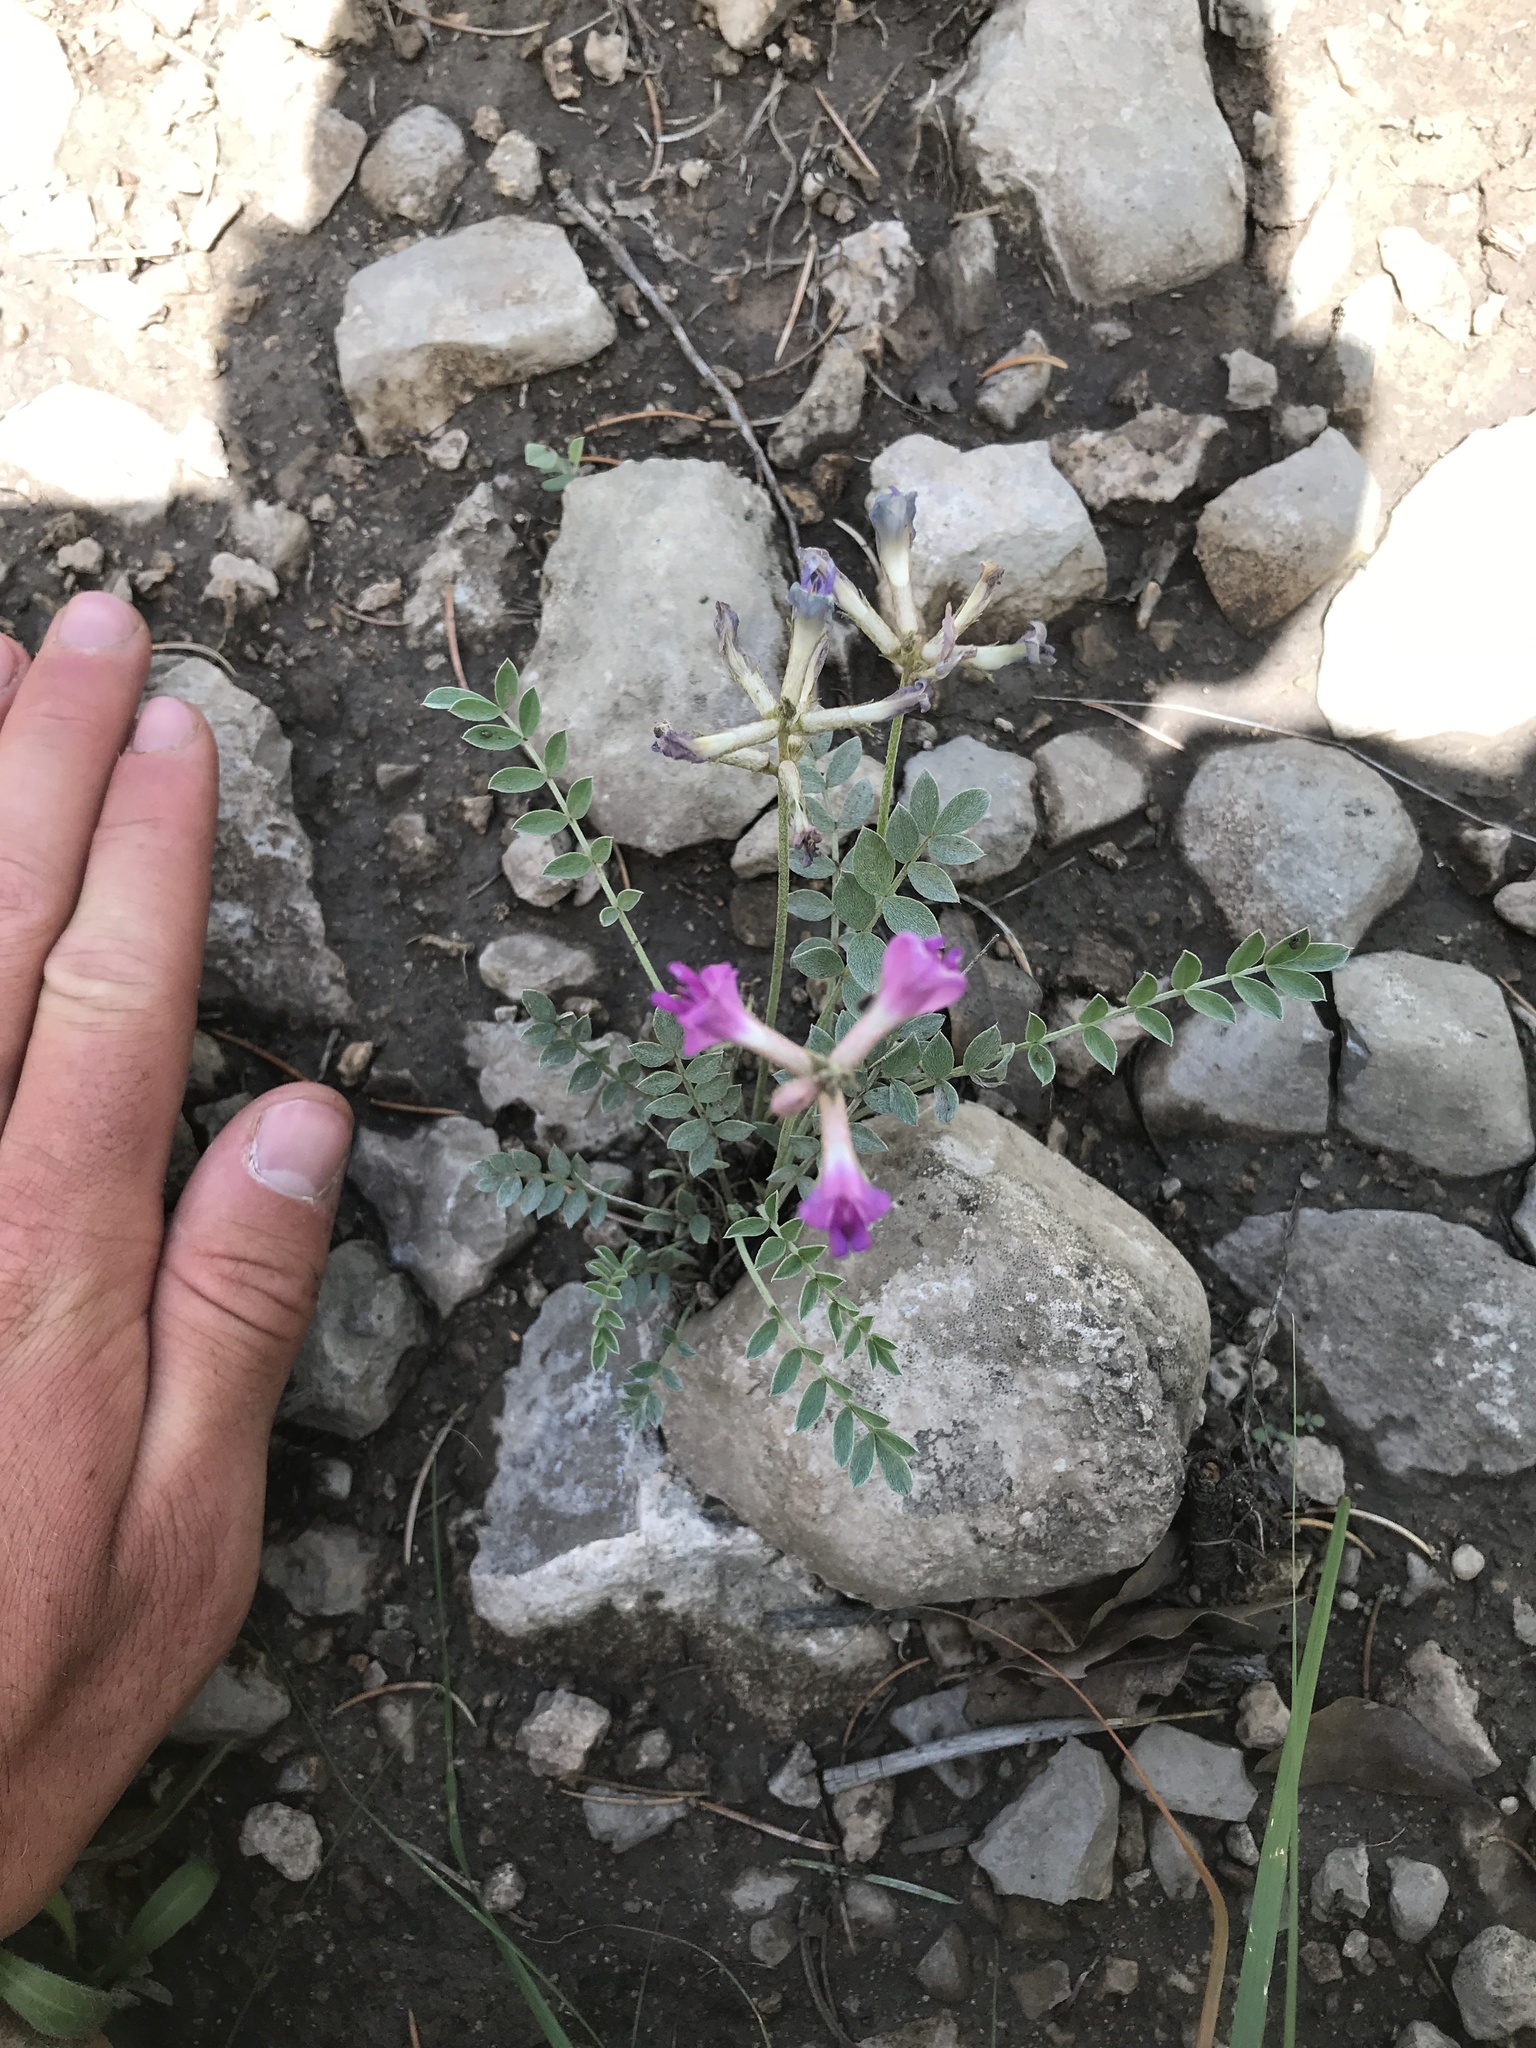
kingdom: Plantae
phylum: Tracheophyta
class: Magnoliopsida
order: Fabales
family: Fabaceae
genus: Astragalus
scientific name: Astragalus missouriensis
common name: Missouri milk-vetch
